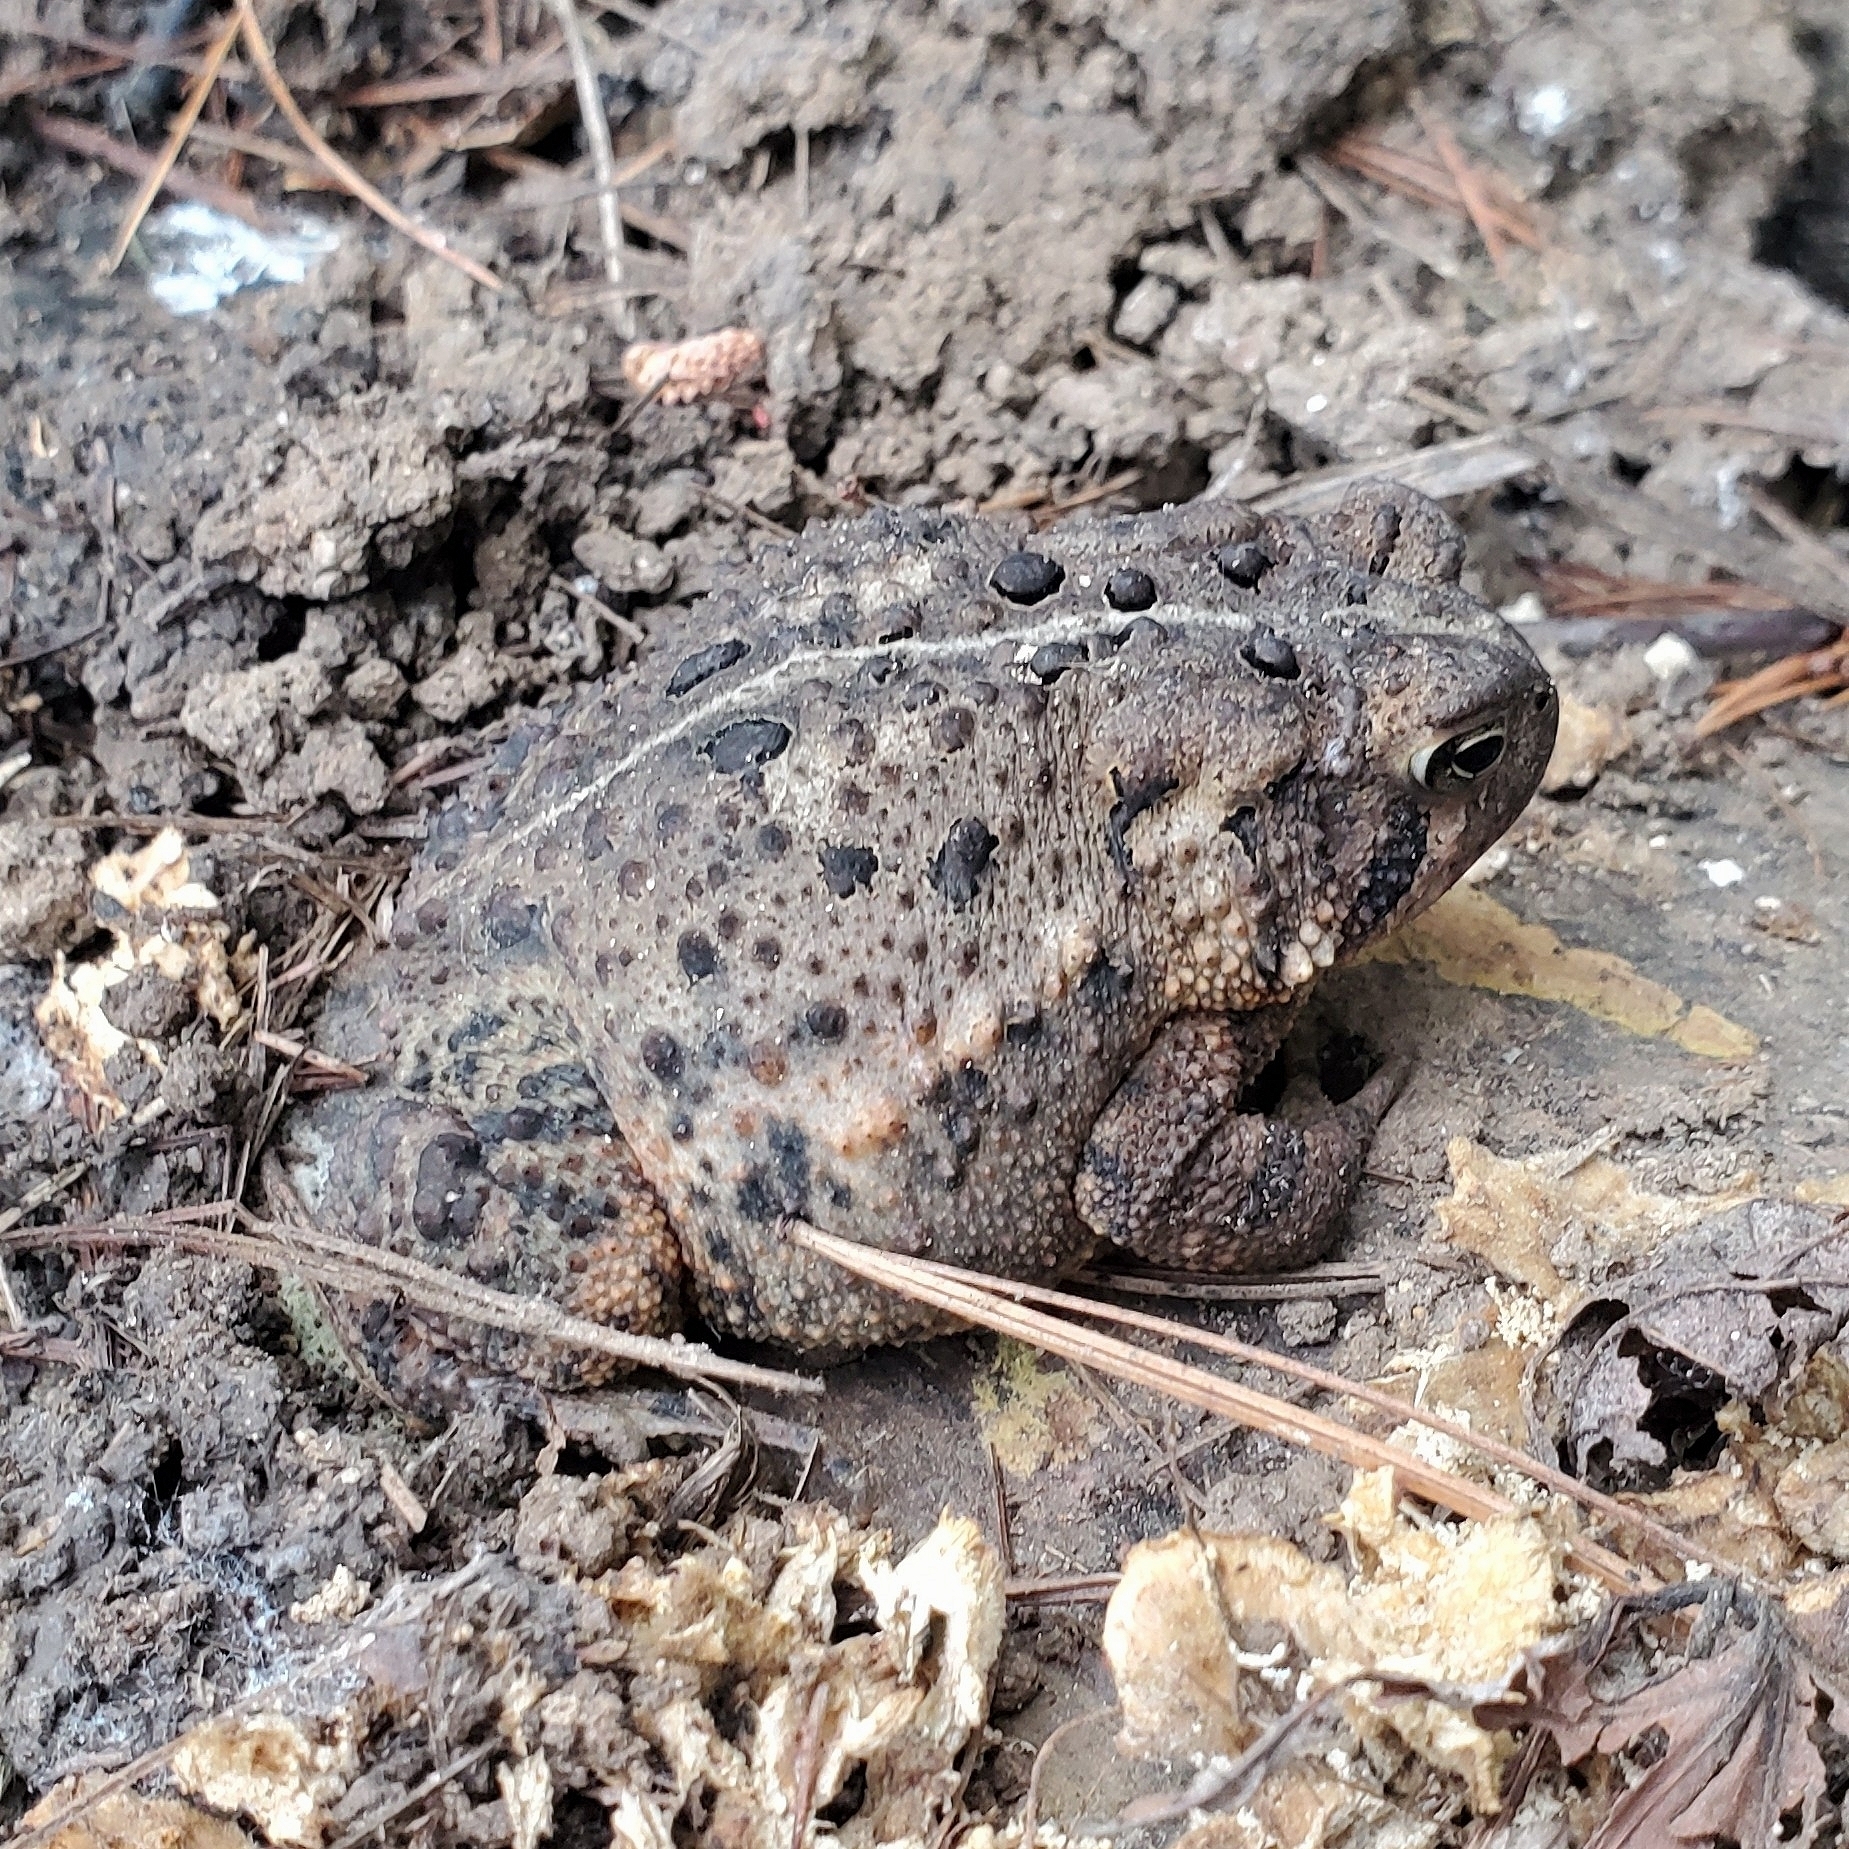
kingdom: Animalia
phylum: Chordata
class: Amphibia
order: Anura
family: Bufonidae
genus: Anaxyrus
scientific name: Anaxyrus americanus
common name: American toad
